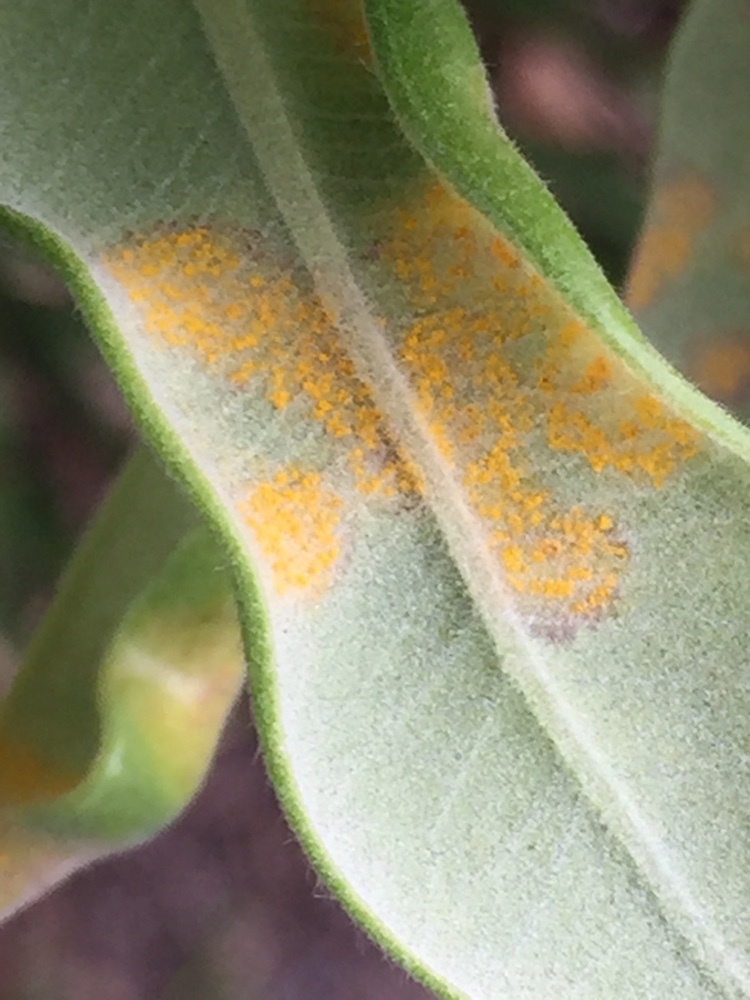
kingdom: Fungi
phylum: Basidiomycota
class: Pucciniomycetes
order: Pucciniales
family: Sphaerophragmiaceae
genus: Austropuccinia
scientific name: Austropuccinia psidii
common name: Myrtle rust
